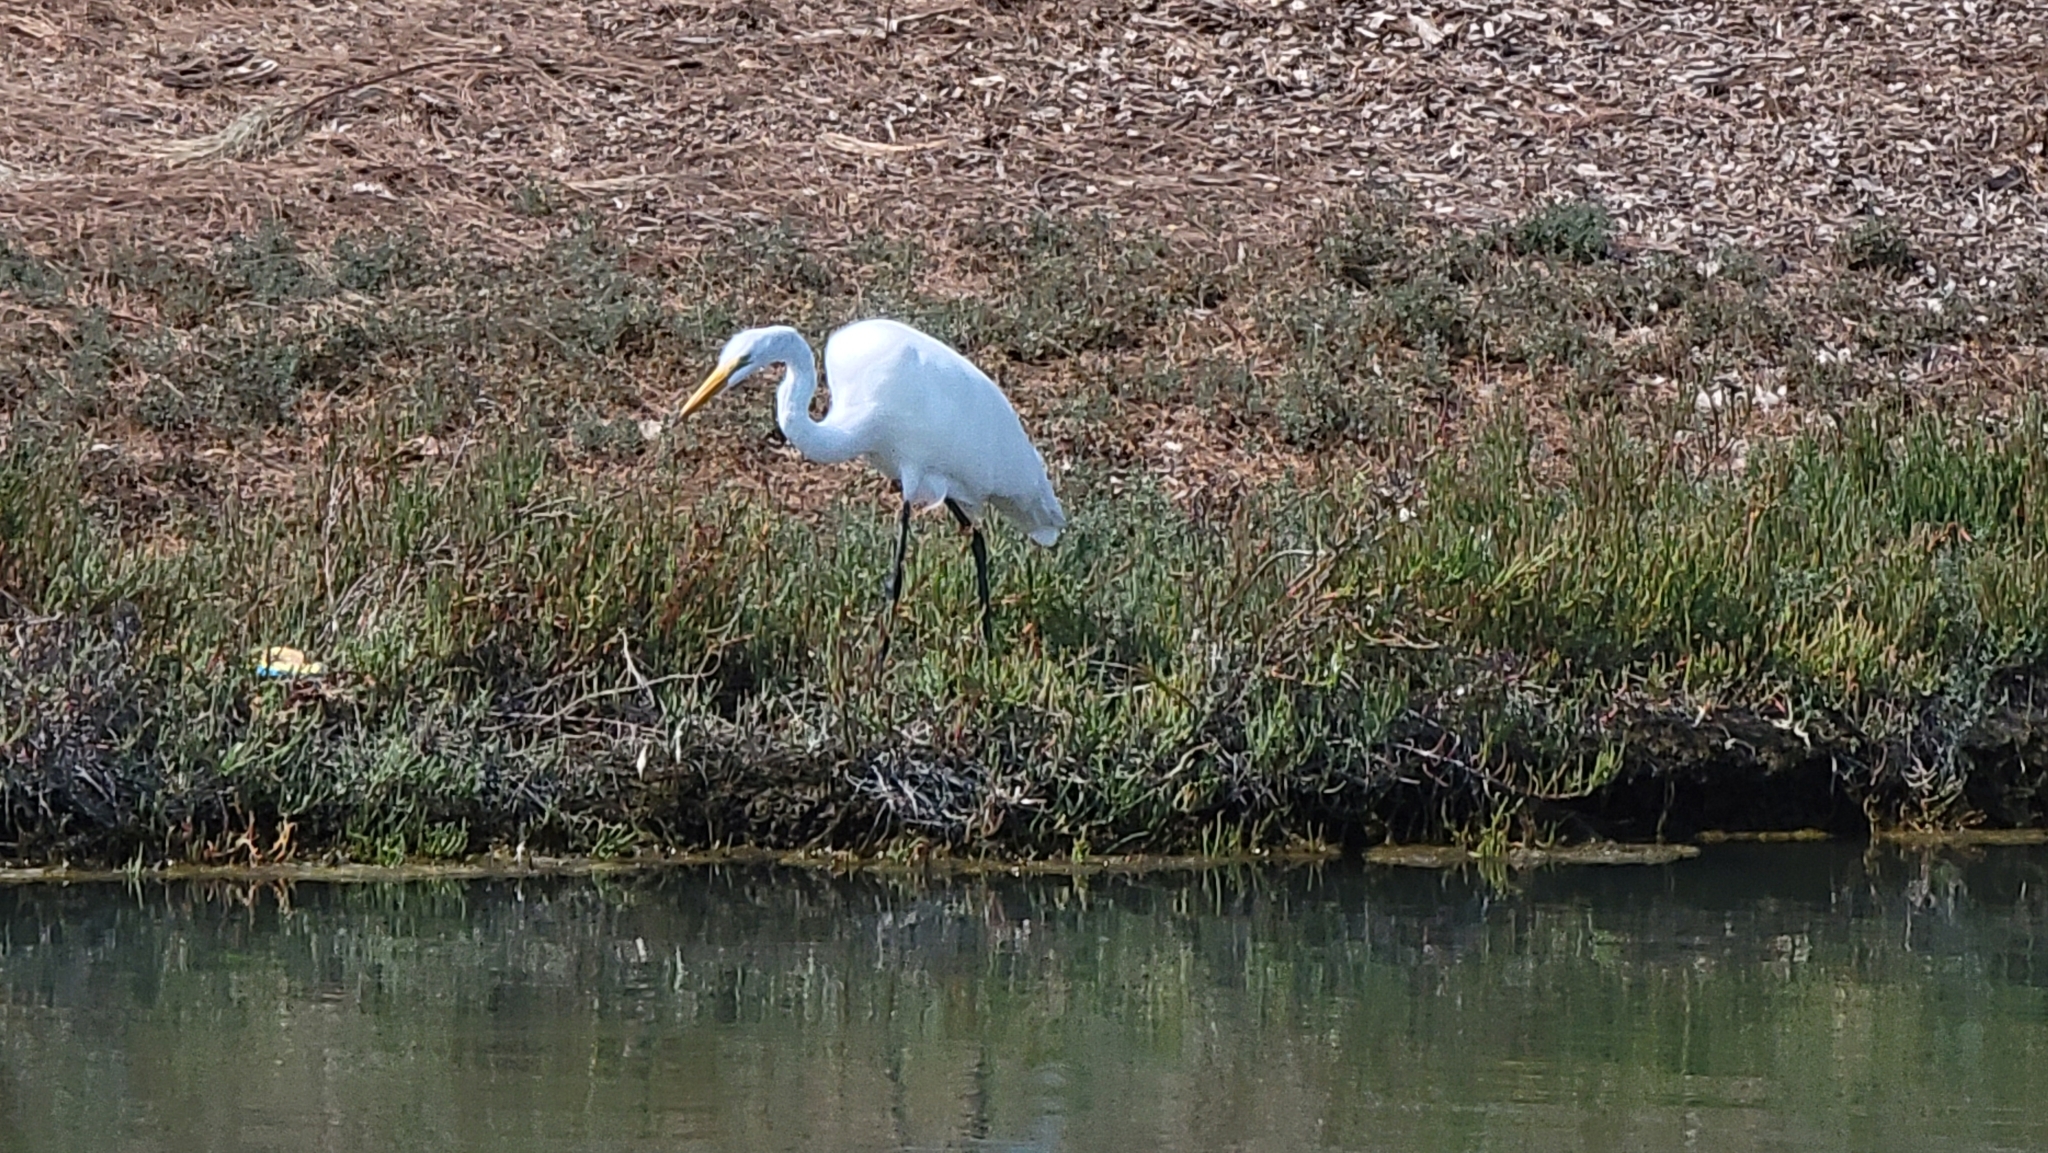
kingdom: Animalia
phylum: Chordata
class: Aves
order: Pelecaniformes
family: Ardeidae
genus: Ardea
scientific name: Ardea alba
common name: Great egret
